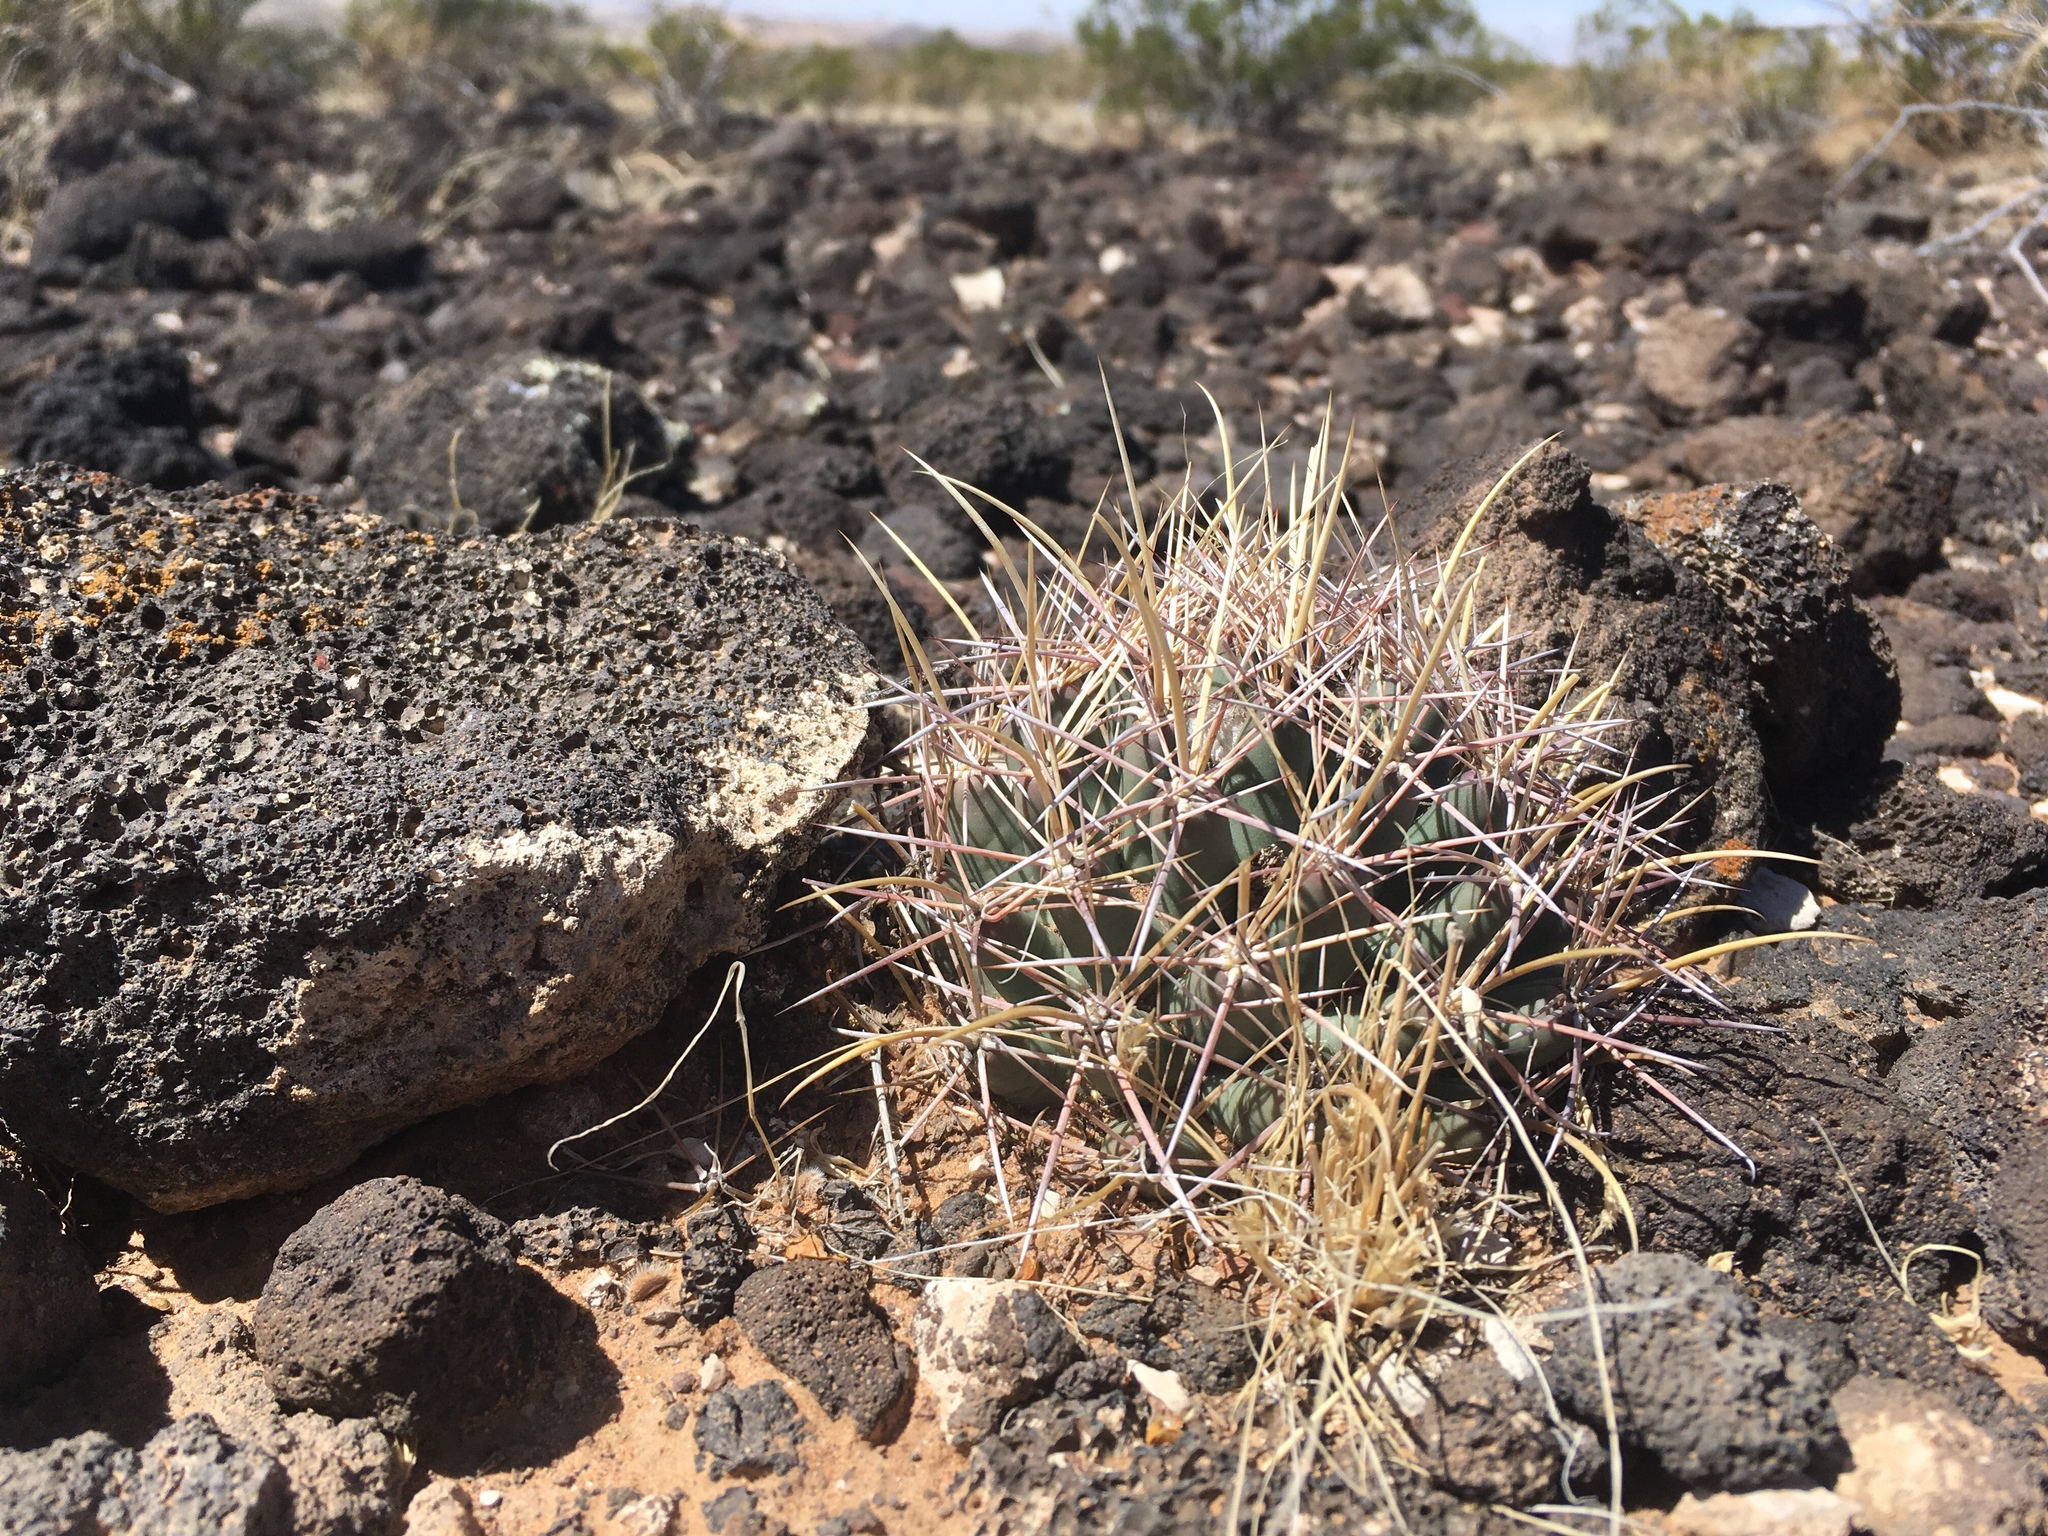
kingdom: Plantae
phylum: Tracheophyta
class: Magnoliopsida
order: Caryophyllales
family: Cactaceae
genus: Coryphantha
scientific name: Coryphantha robustispina
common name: Pima pineapple cactus
